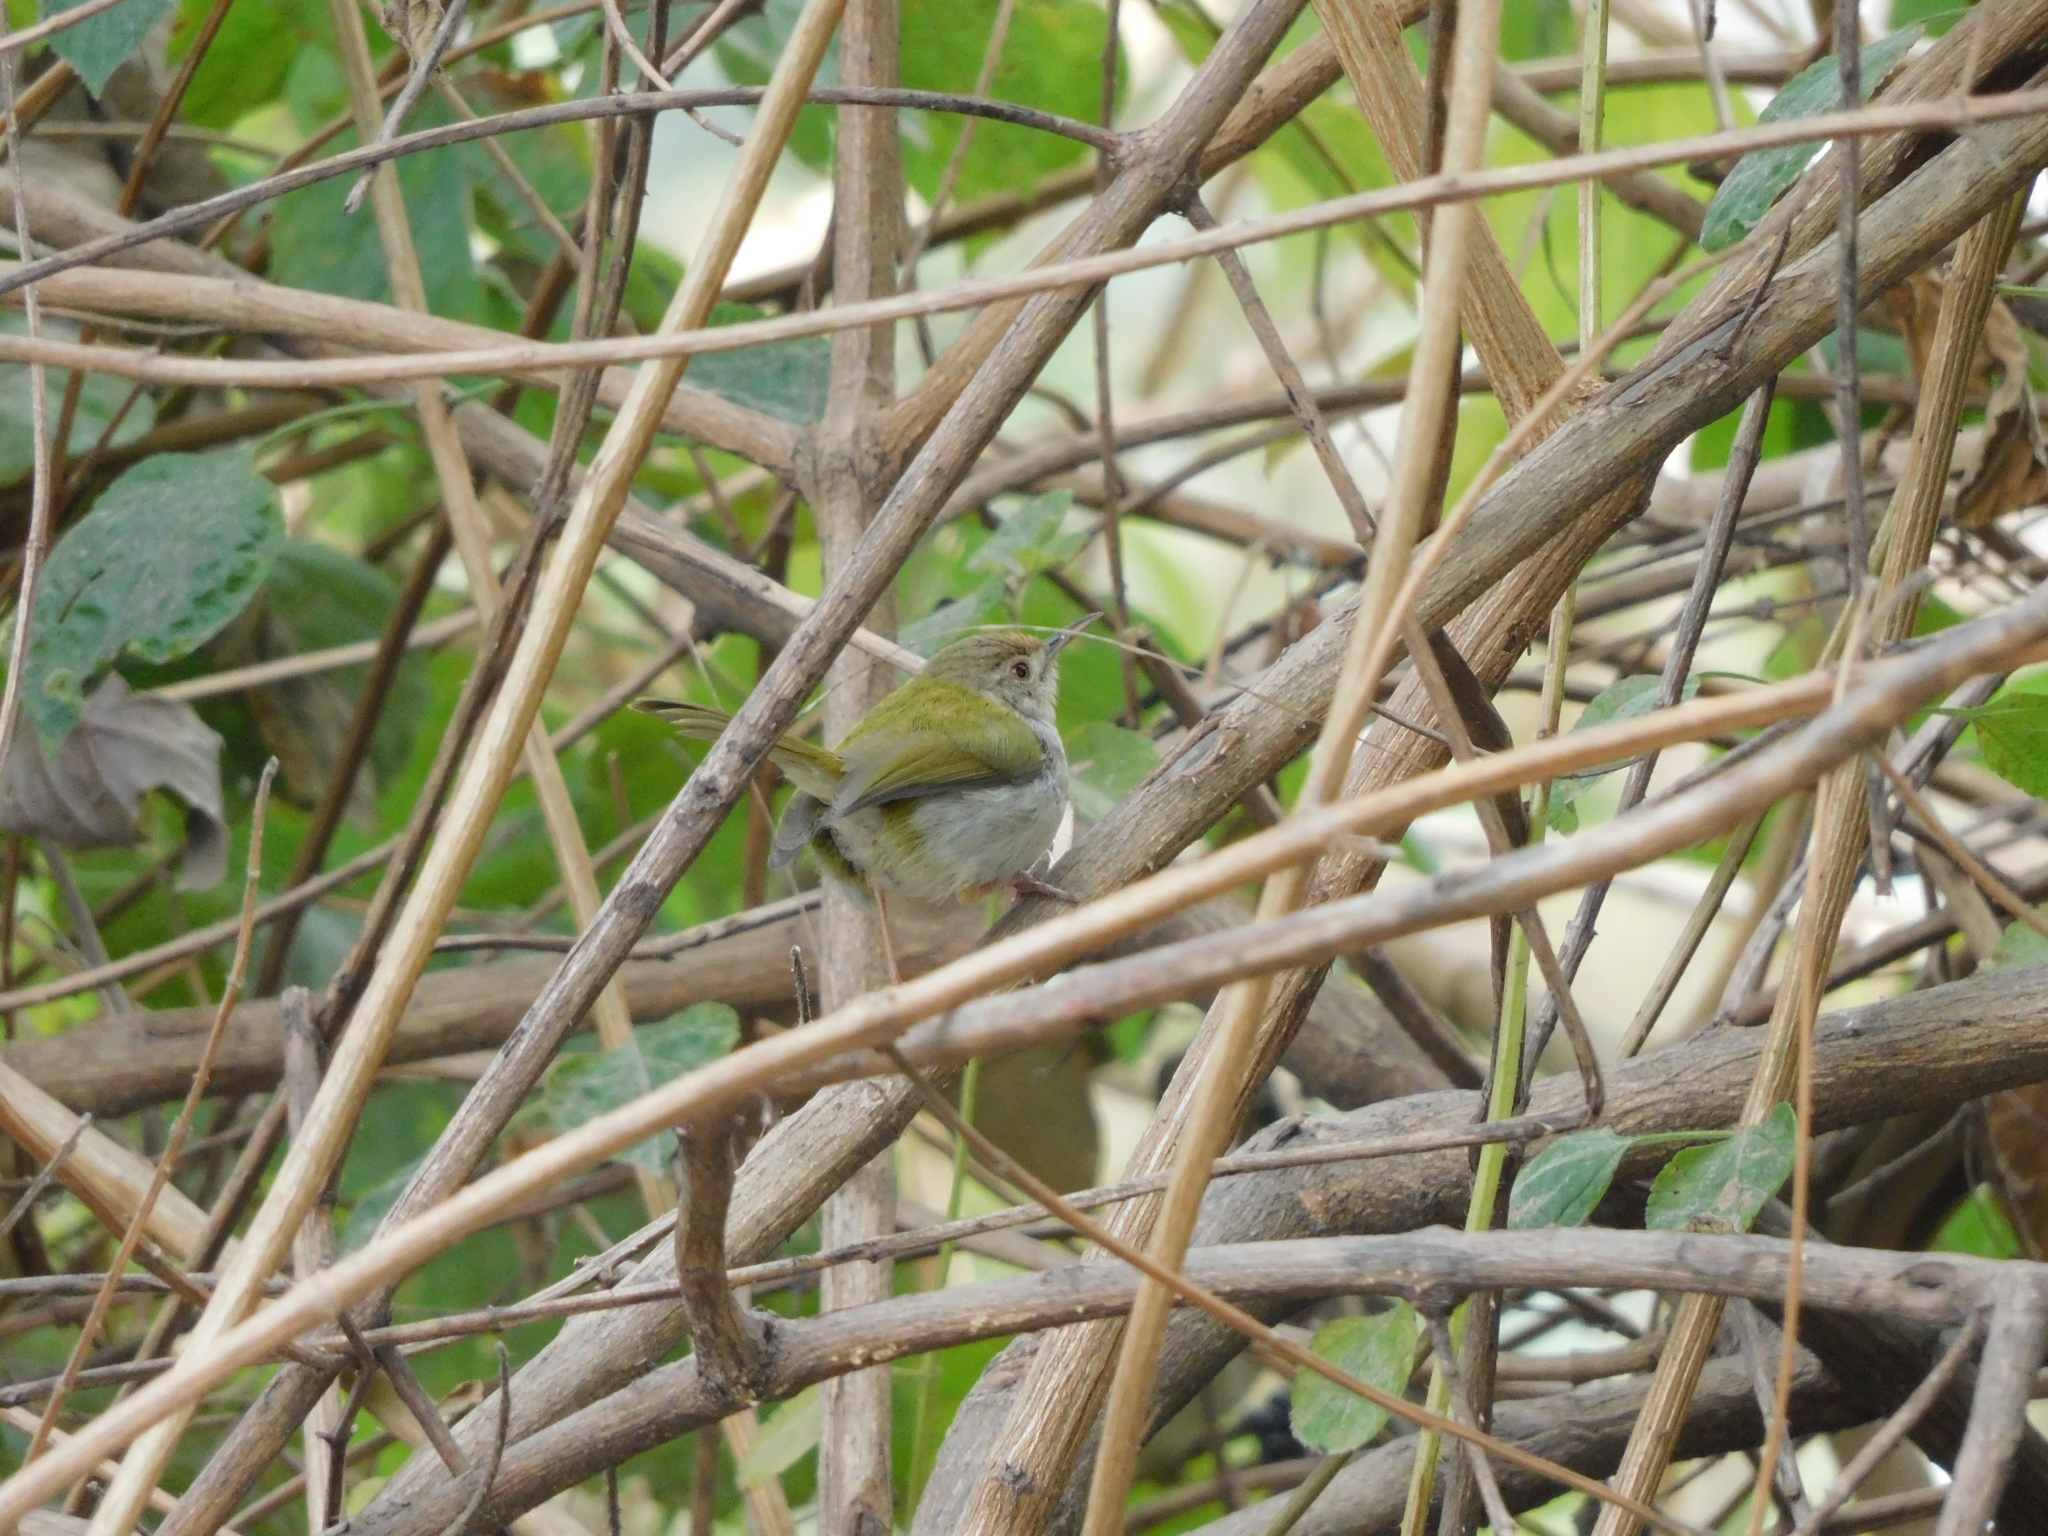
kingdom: Animalia
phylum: Chordata
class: Aves
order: Passeriformes
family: Cisticolidae
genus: Orthotomus
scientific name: Orthotomus sutorius
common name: Common tailorbird
